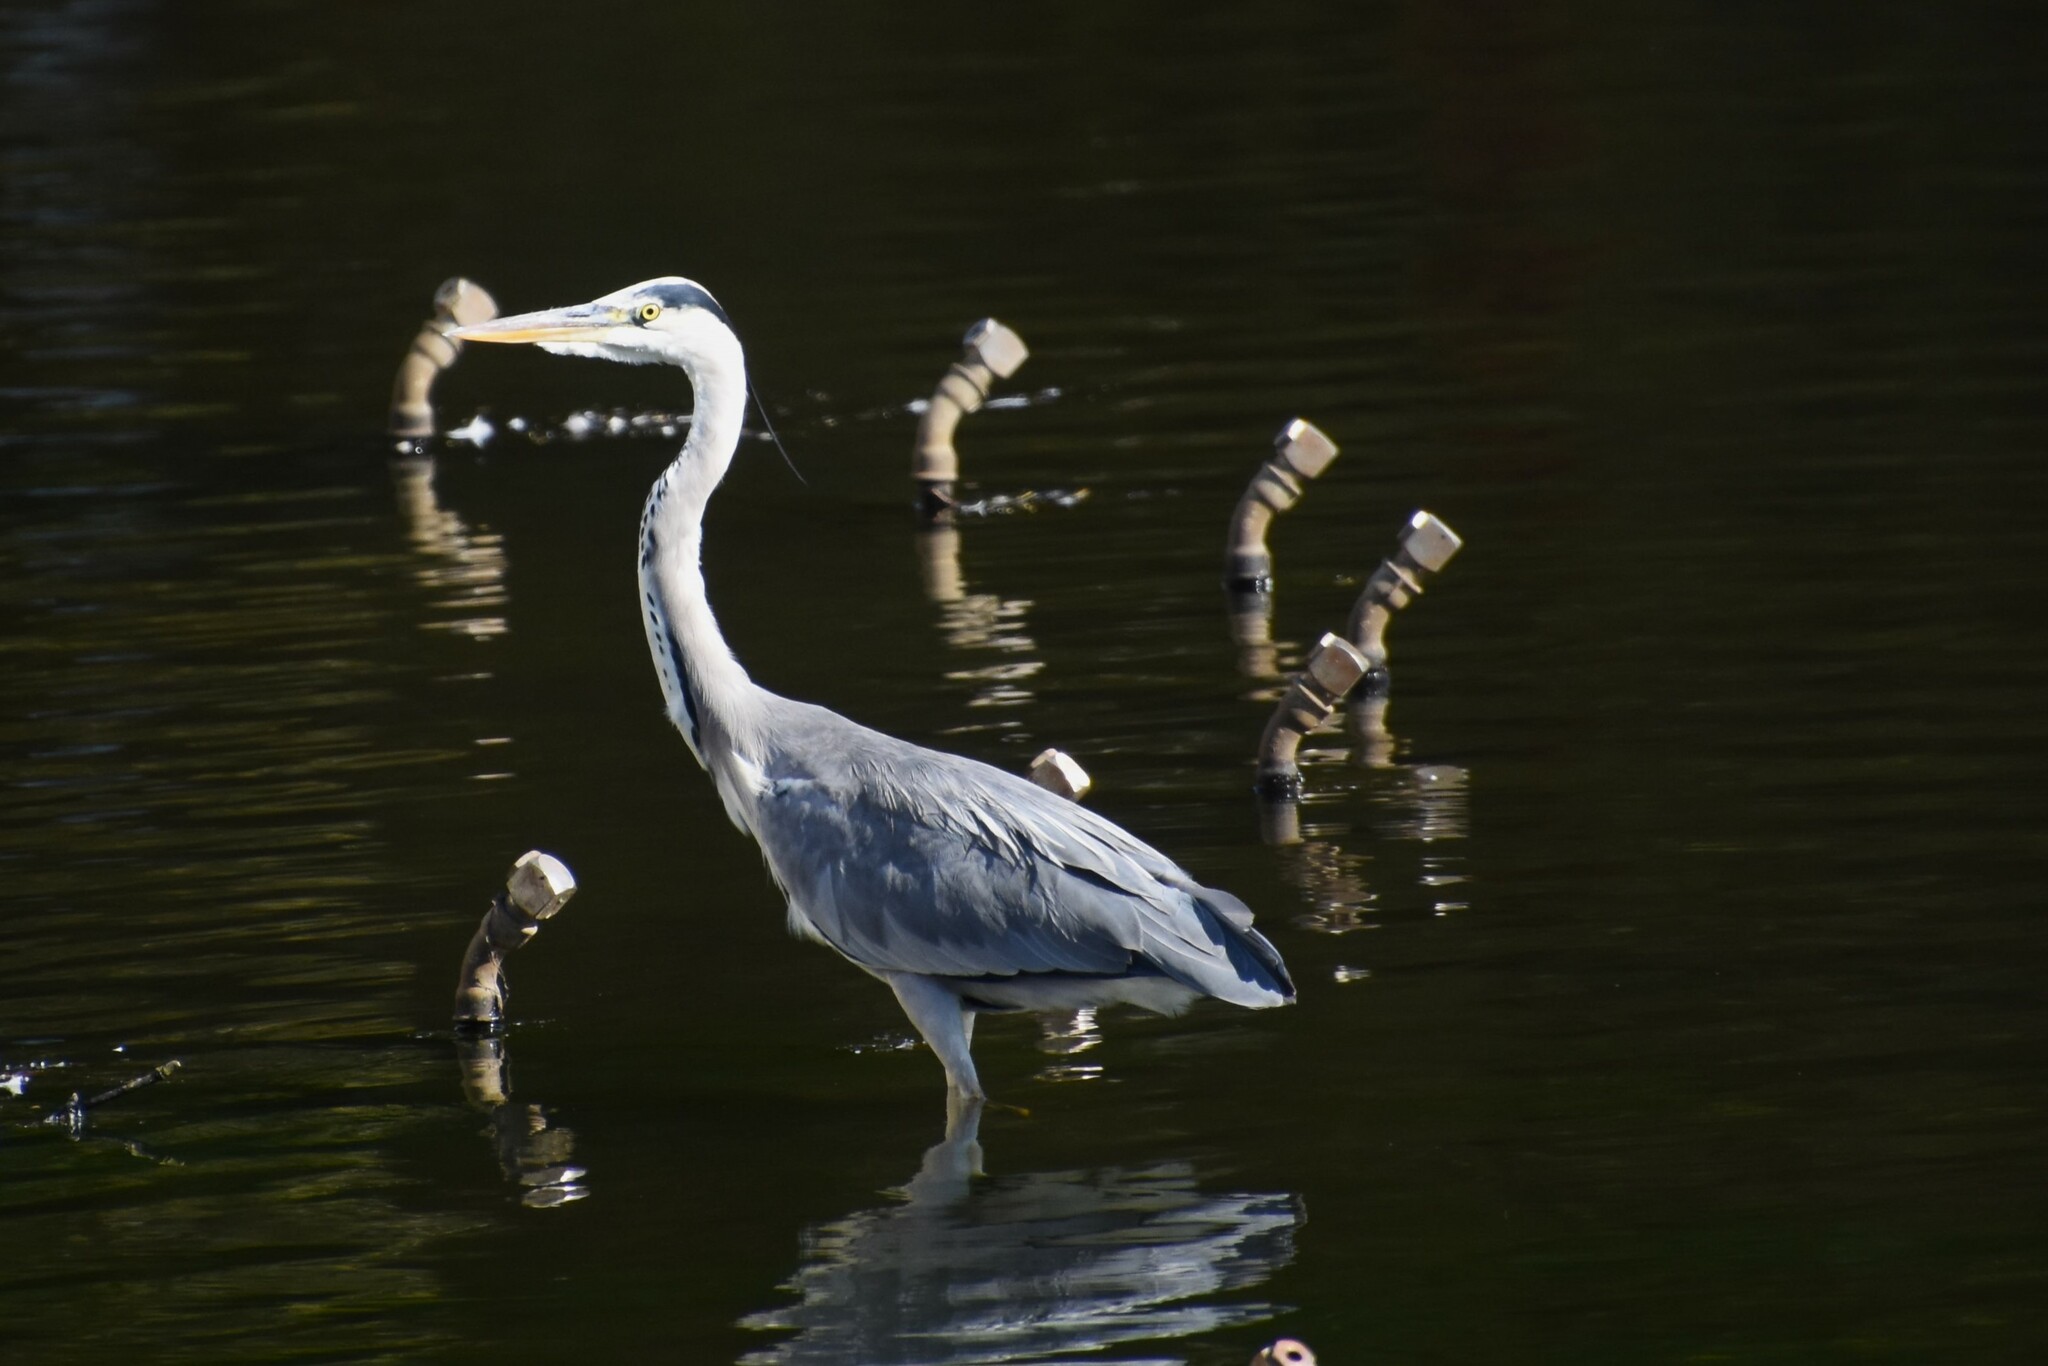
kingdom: Animalia
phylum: Chordata
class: Aves
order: Pelecaniformes
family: Ardeidae
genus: Ardea
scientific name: Ardea cinerea
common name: Grey heron
